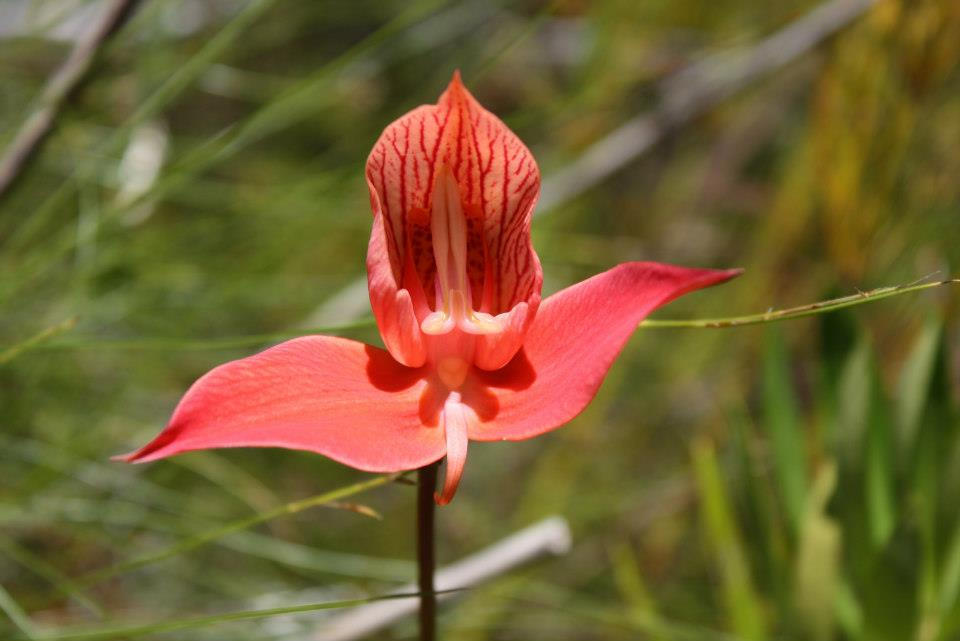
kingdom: Plantae
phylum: Tracheophyta
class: Liliopsida
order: Asparagales
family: Orchidaceae
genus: Disa
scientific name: Disa uniflora
